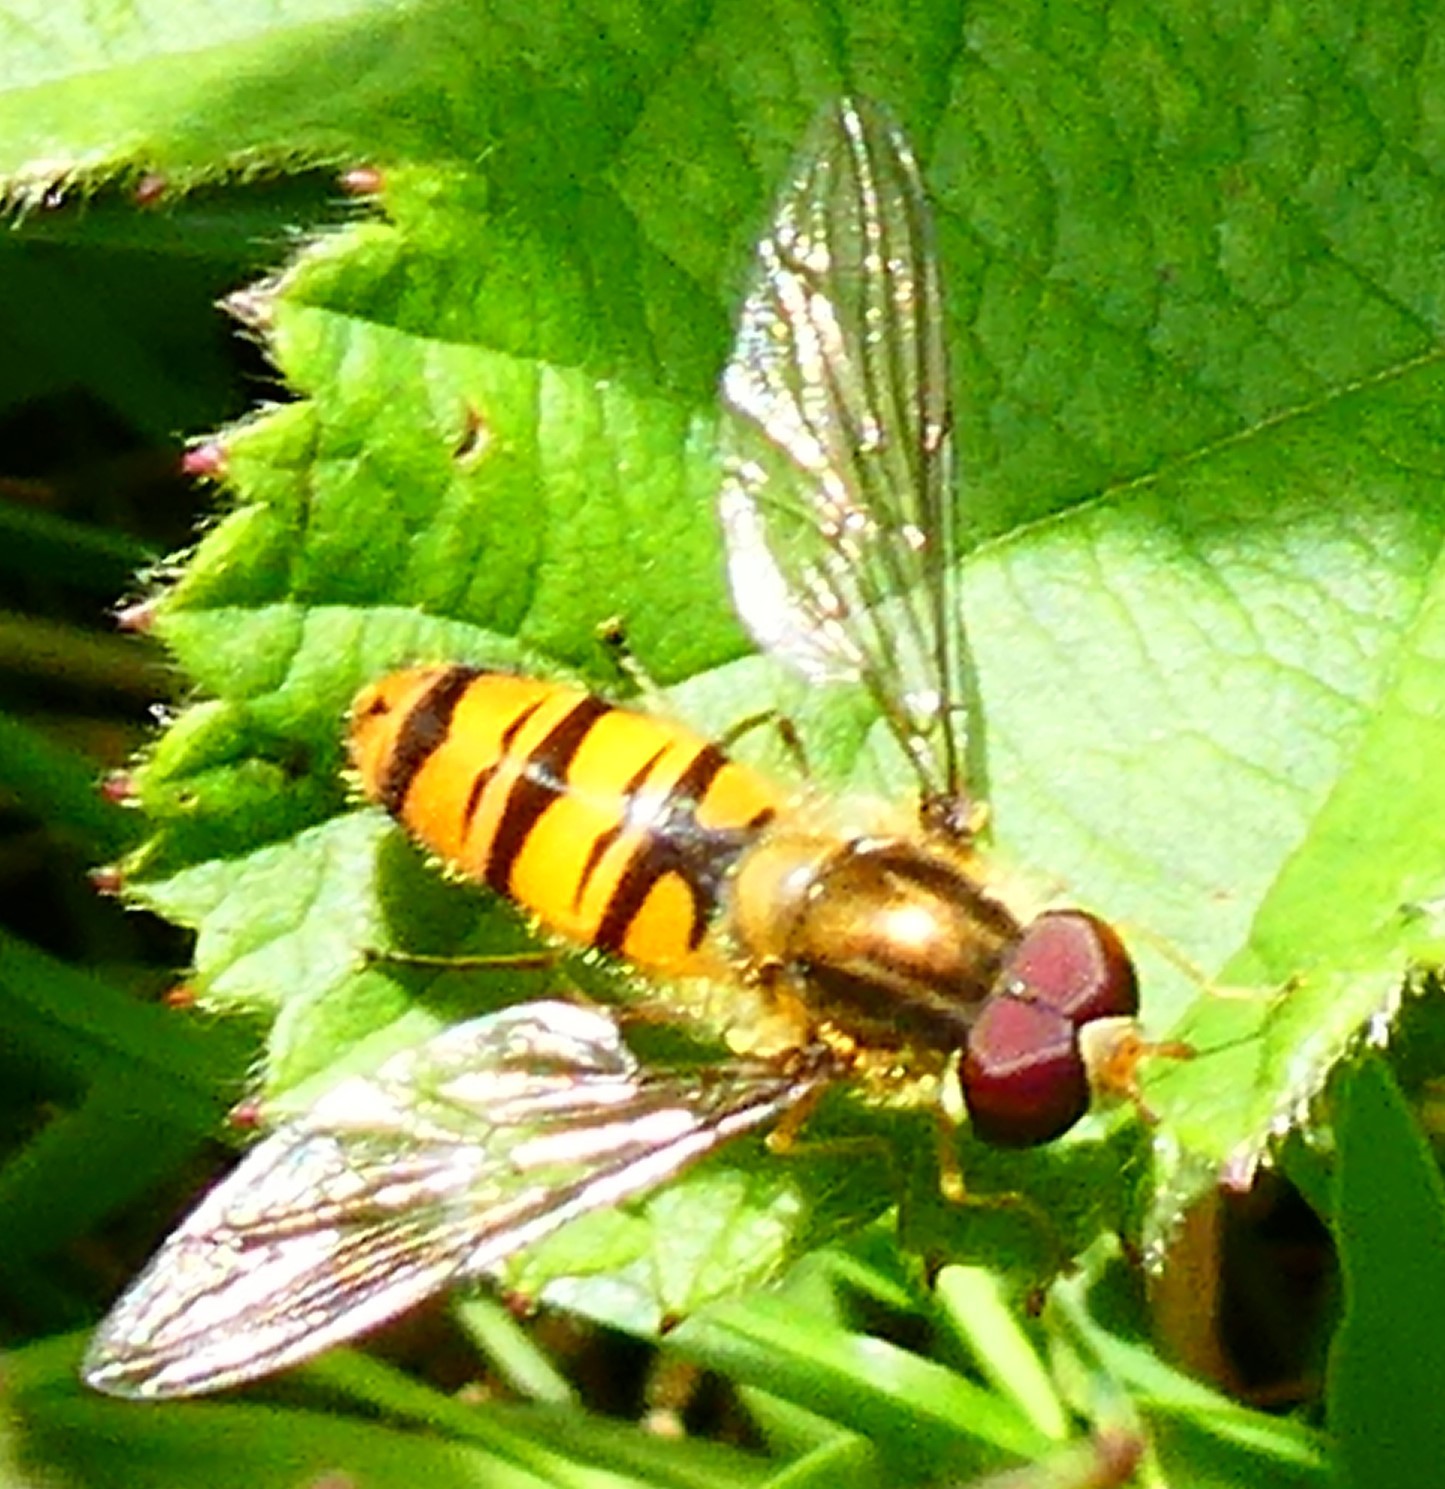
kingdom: Animalia
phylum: Arthropoda
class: Insecta
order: Diptera
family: Syrphidae
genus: Episyrphus
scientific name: Episyrphus balteatus
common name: Marmalade hoverfly
